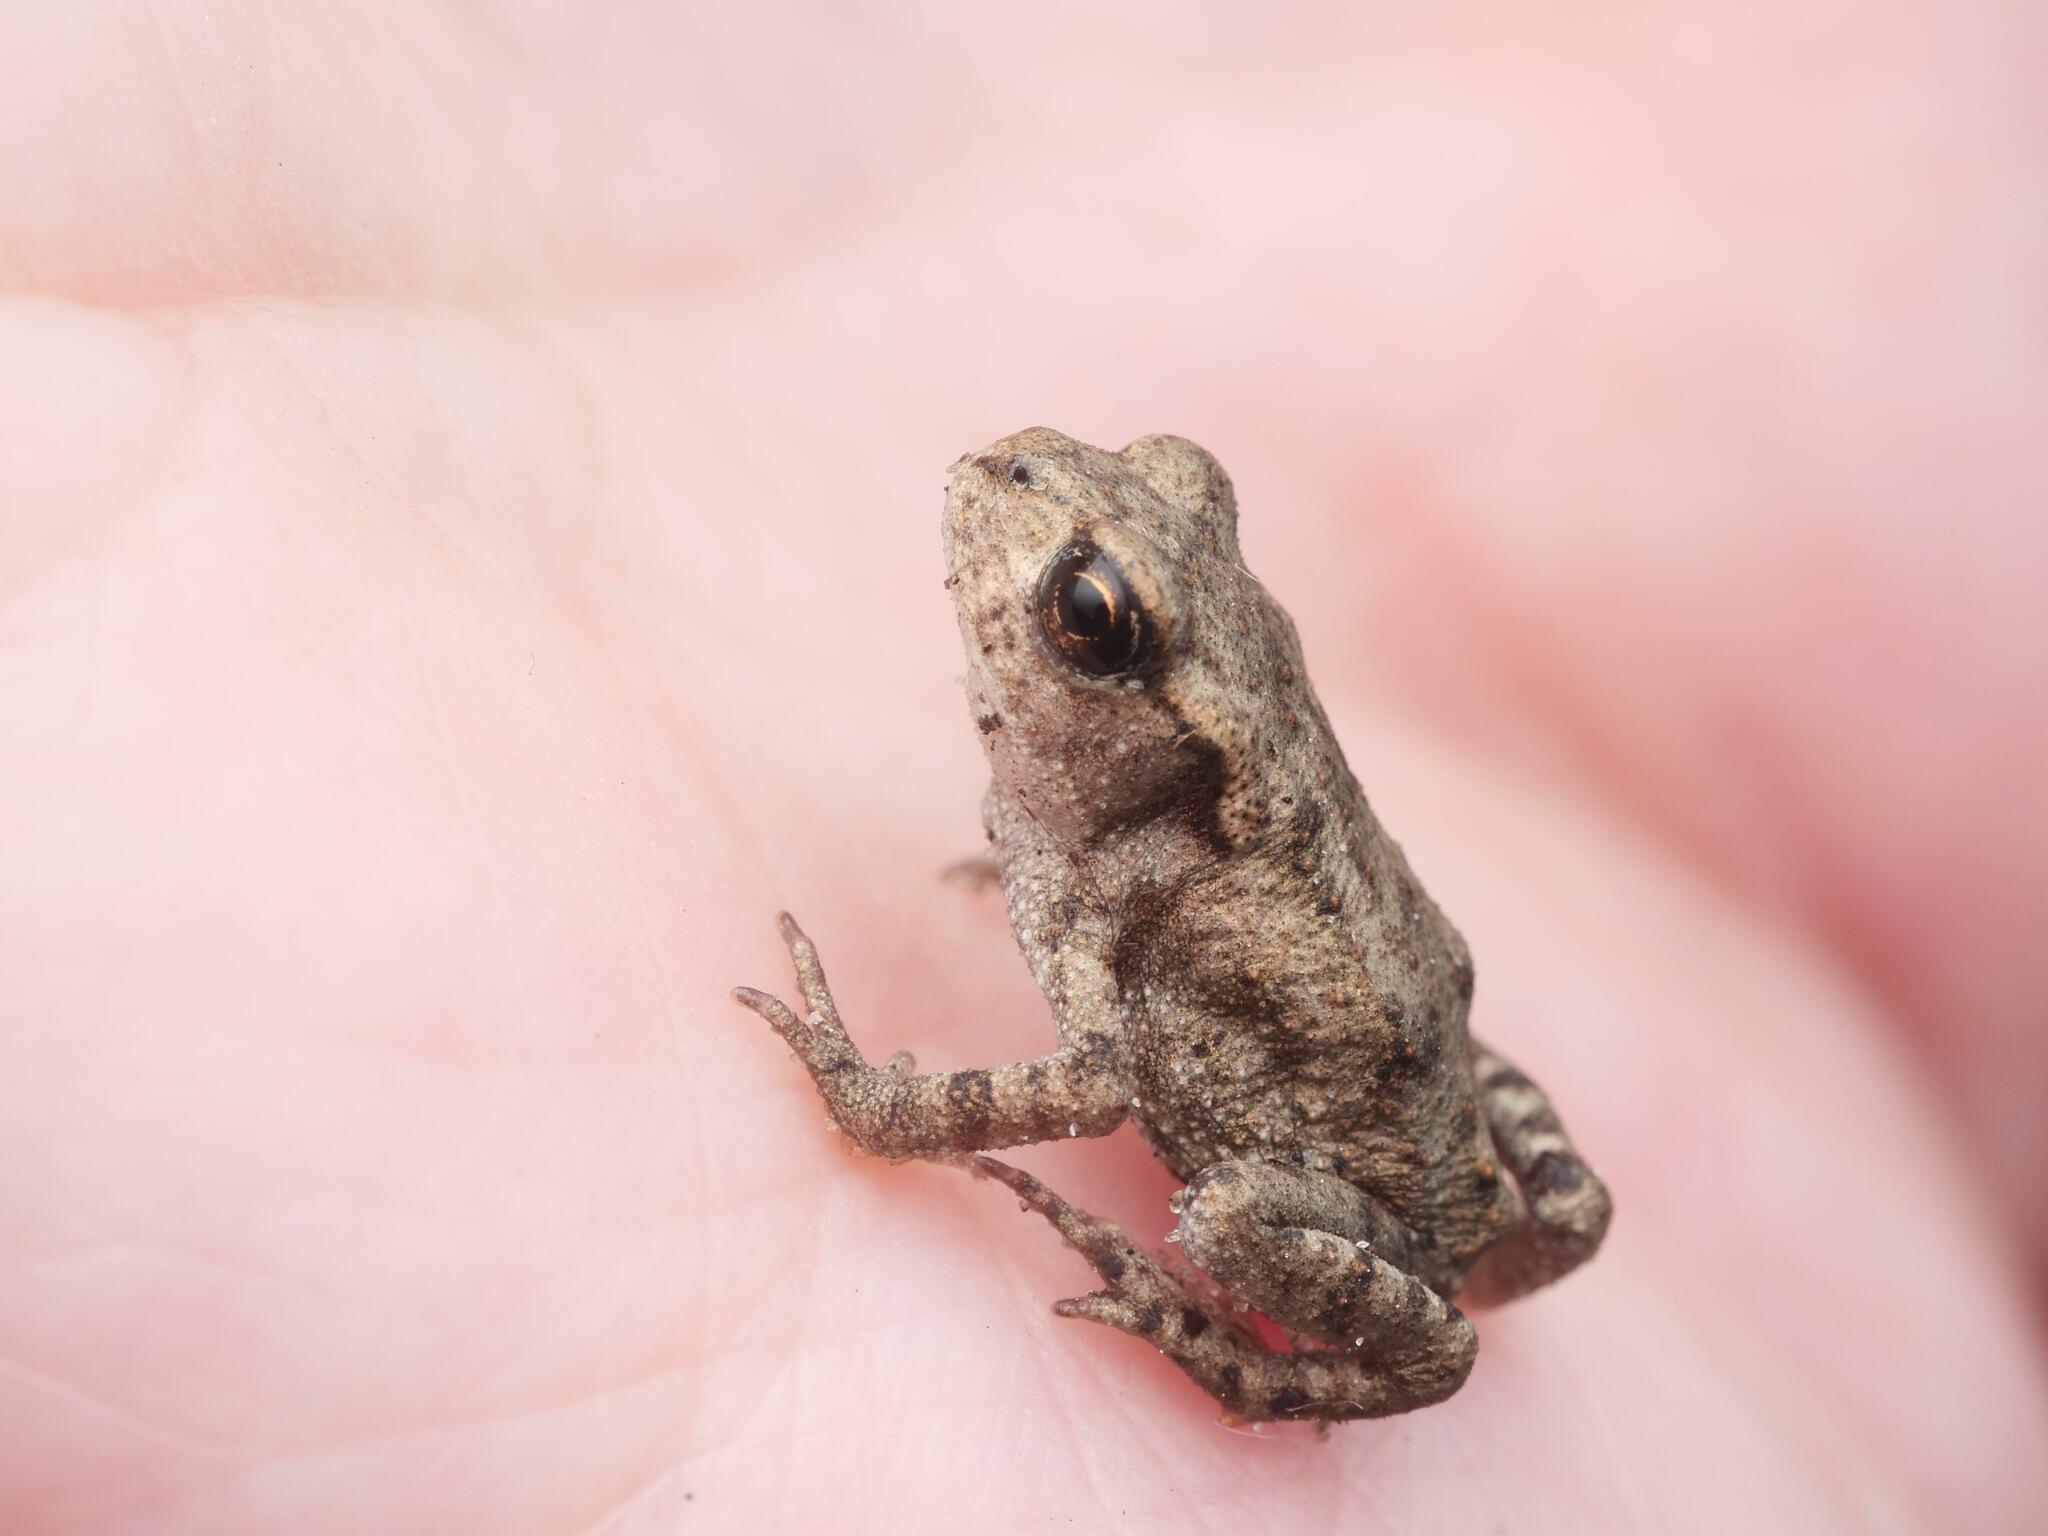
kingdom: Animalia
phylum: Chordata
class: Amphibia
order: Anura
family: Bufonidae
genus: Bufo
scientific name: Bufo bufo
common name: Common toad
